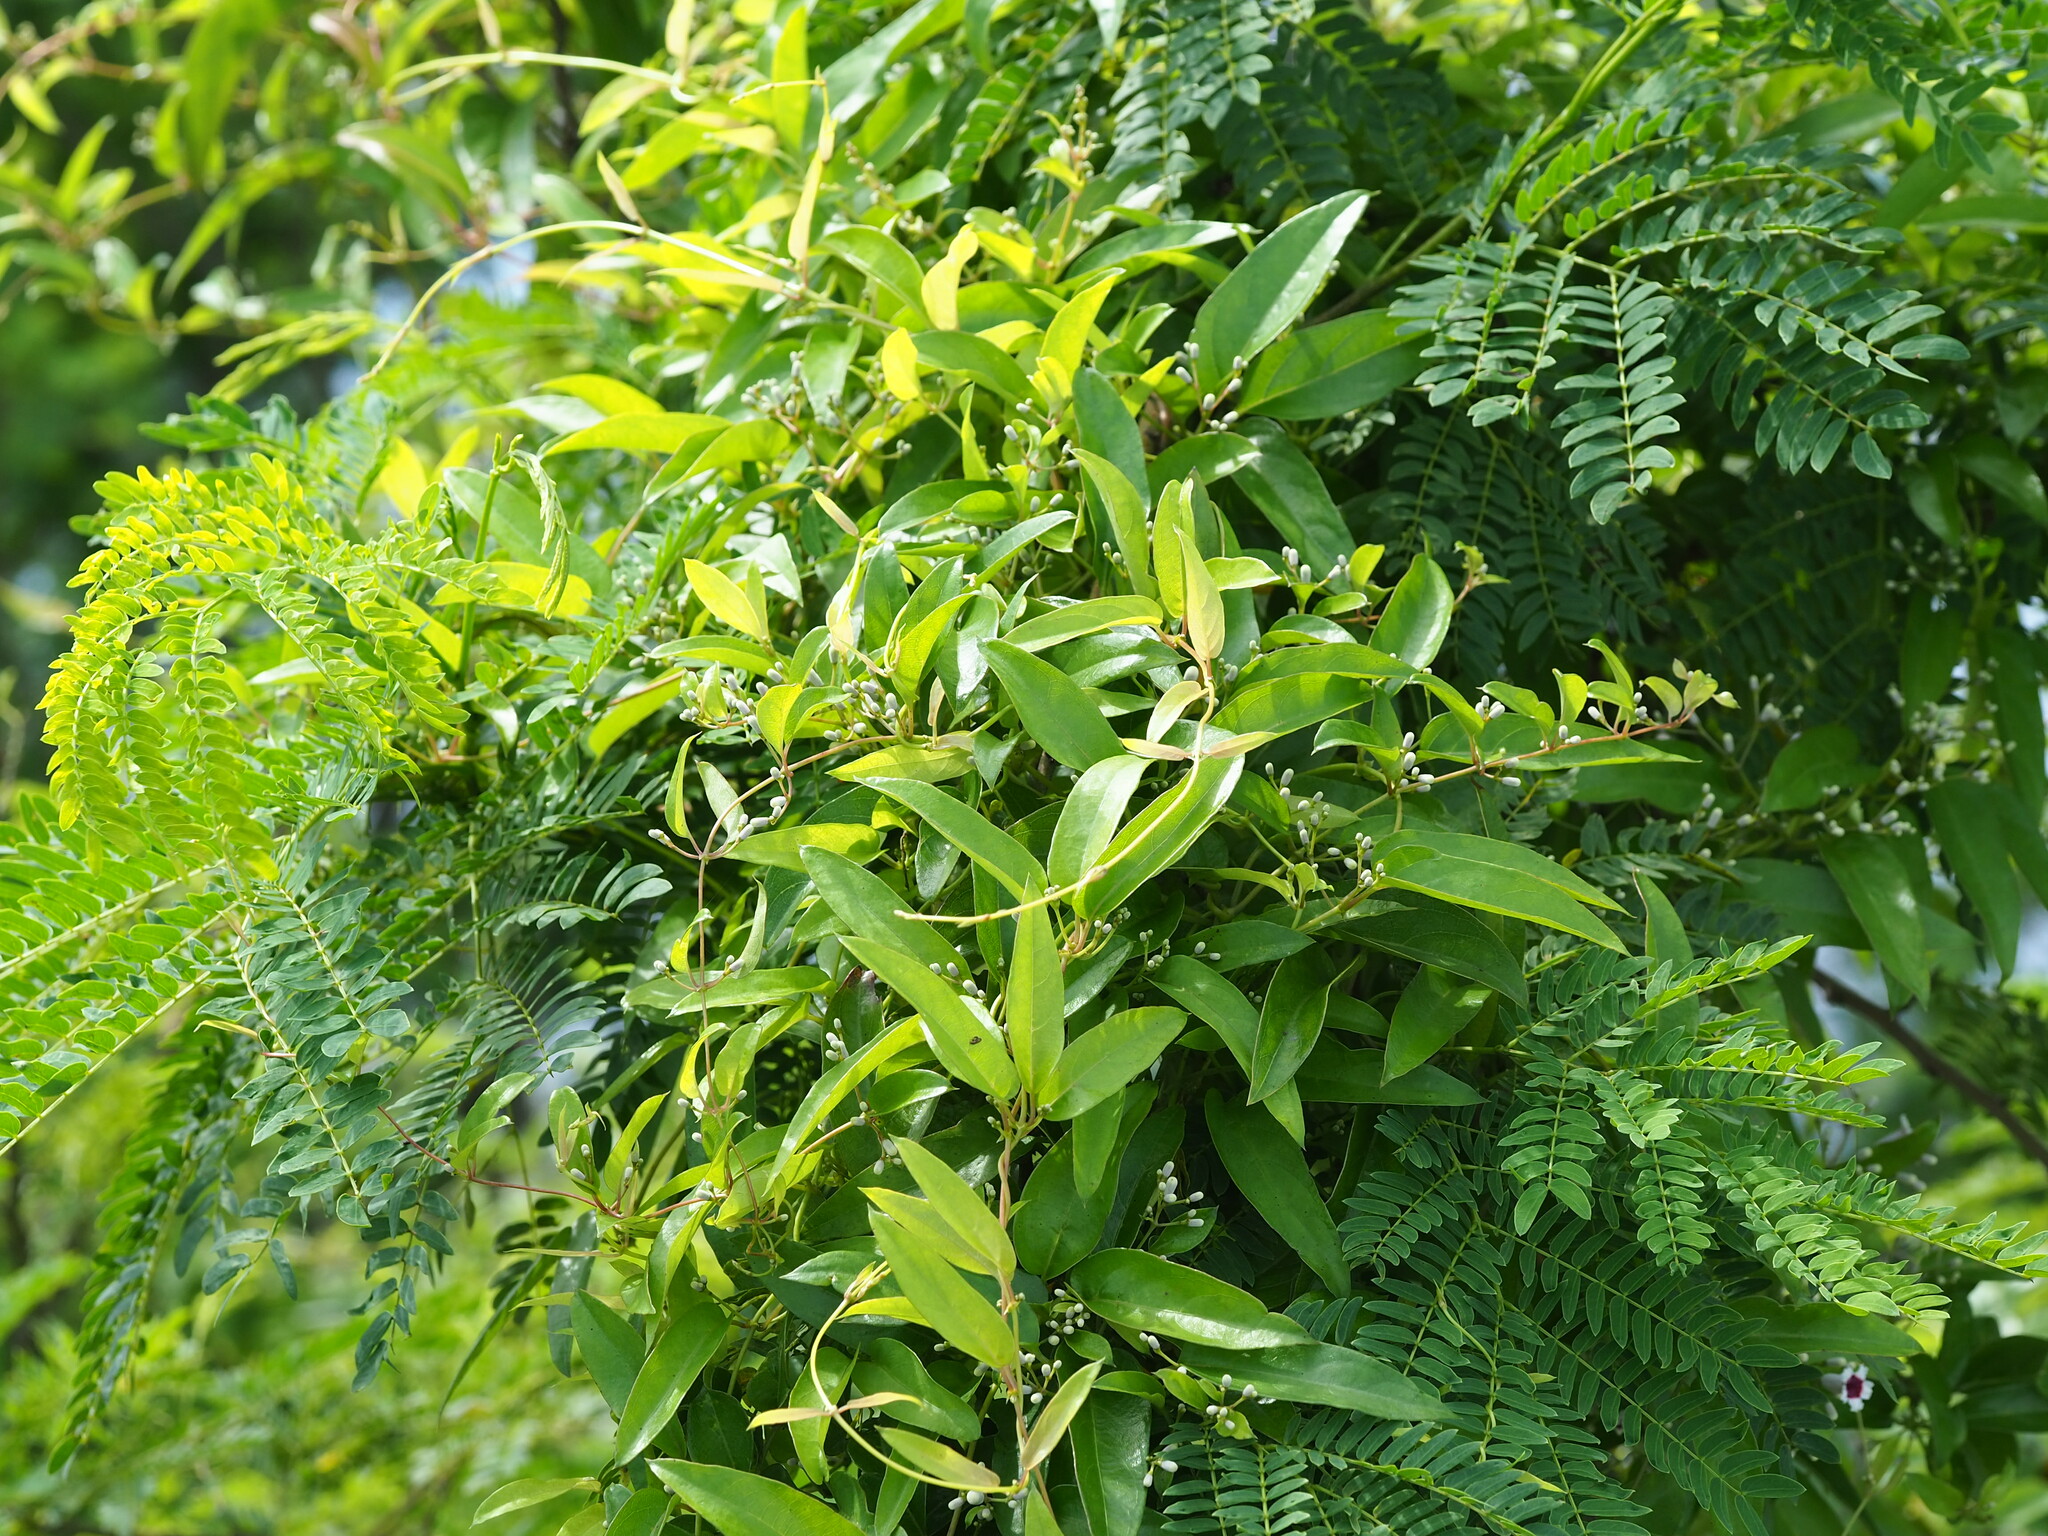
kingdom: Plantae
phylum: Tracheophyta
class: Magnoliopsida
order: Gentianales
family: Rubiaceae
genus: Paederia
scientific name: Paederia foetida
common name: Stinkvine
